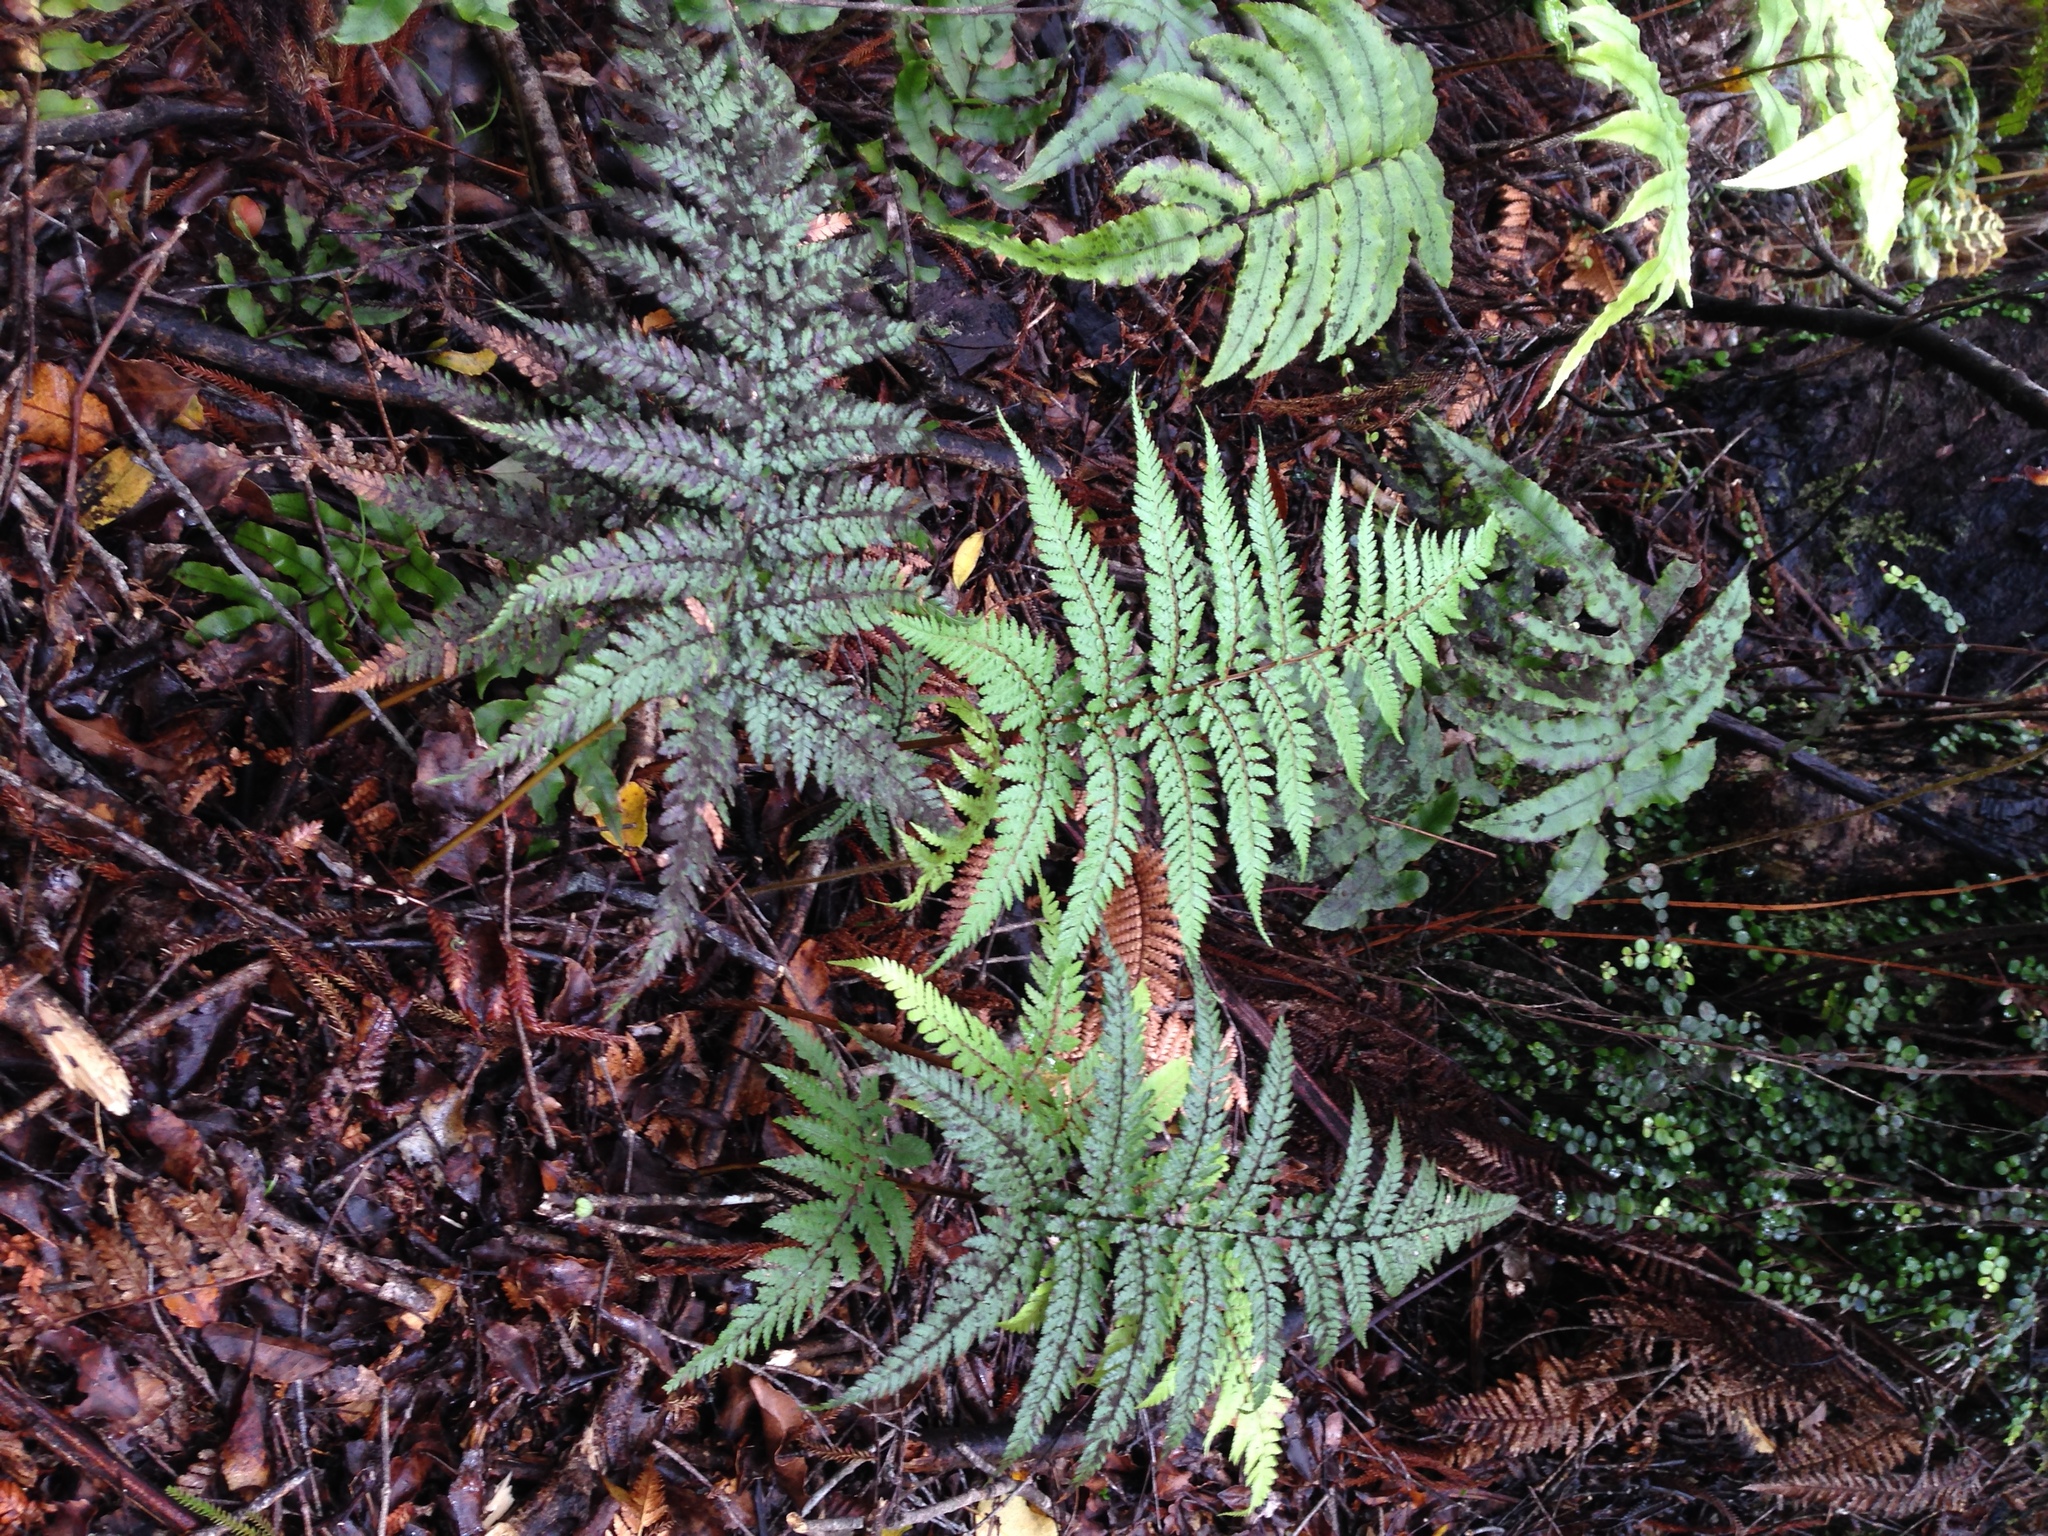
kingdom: Plantae
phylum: Tracheophyta
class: Polypodiopsida
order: Cyatheales
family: Dicksoniaceae
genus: Dicksonia
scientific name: Dicksonia lanata
